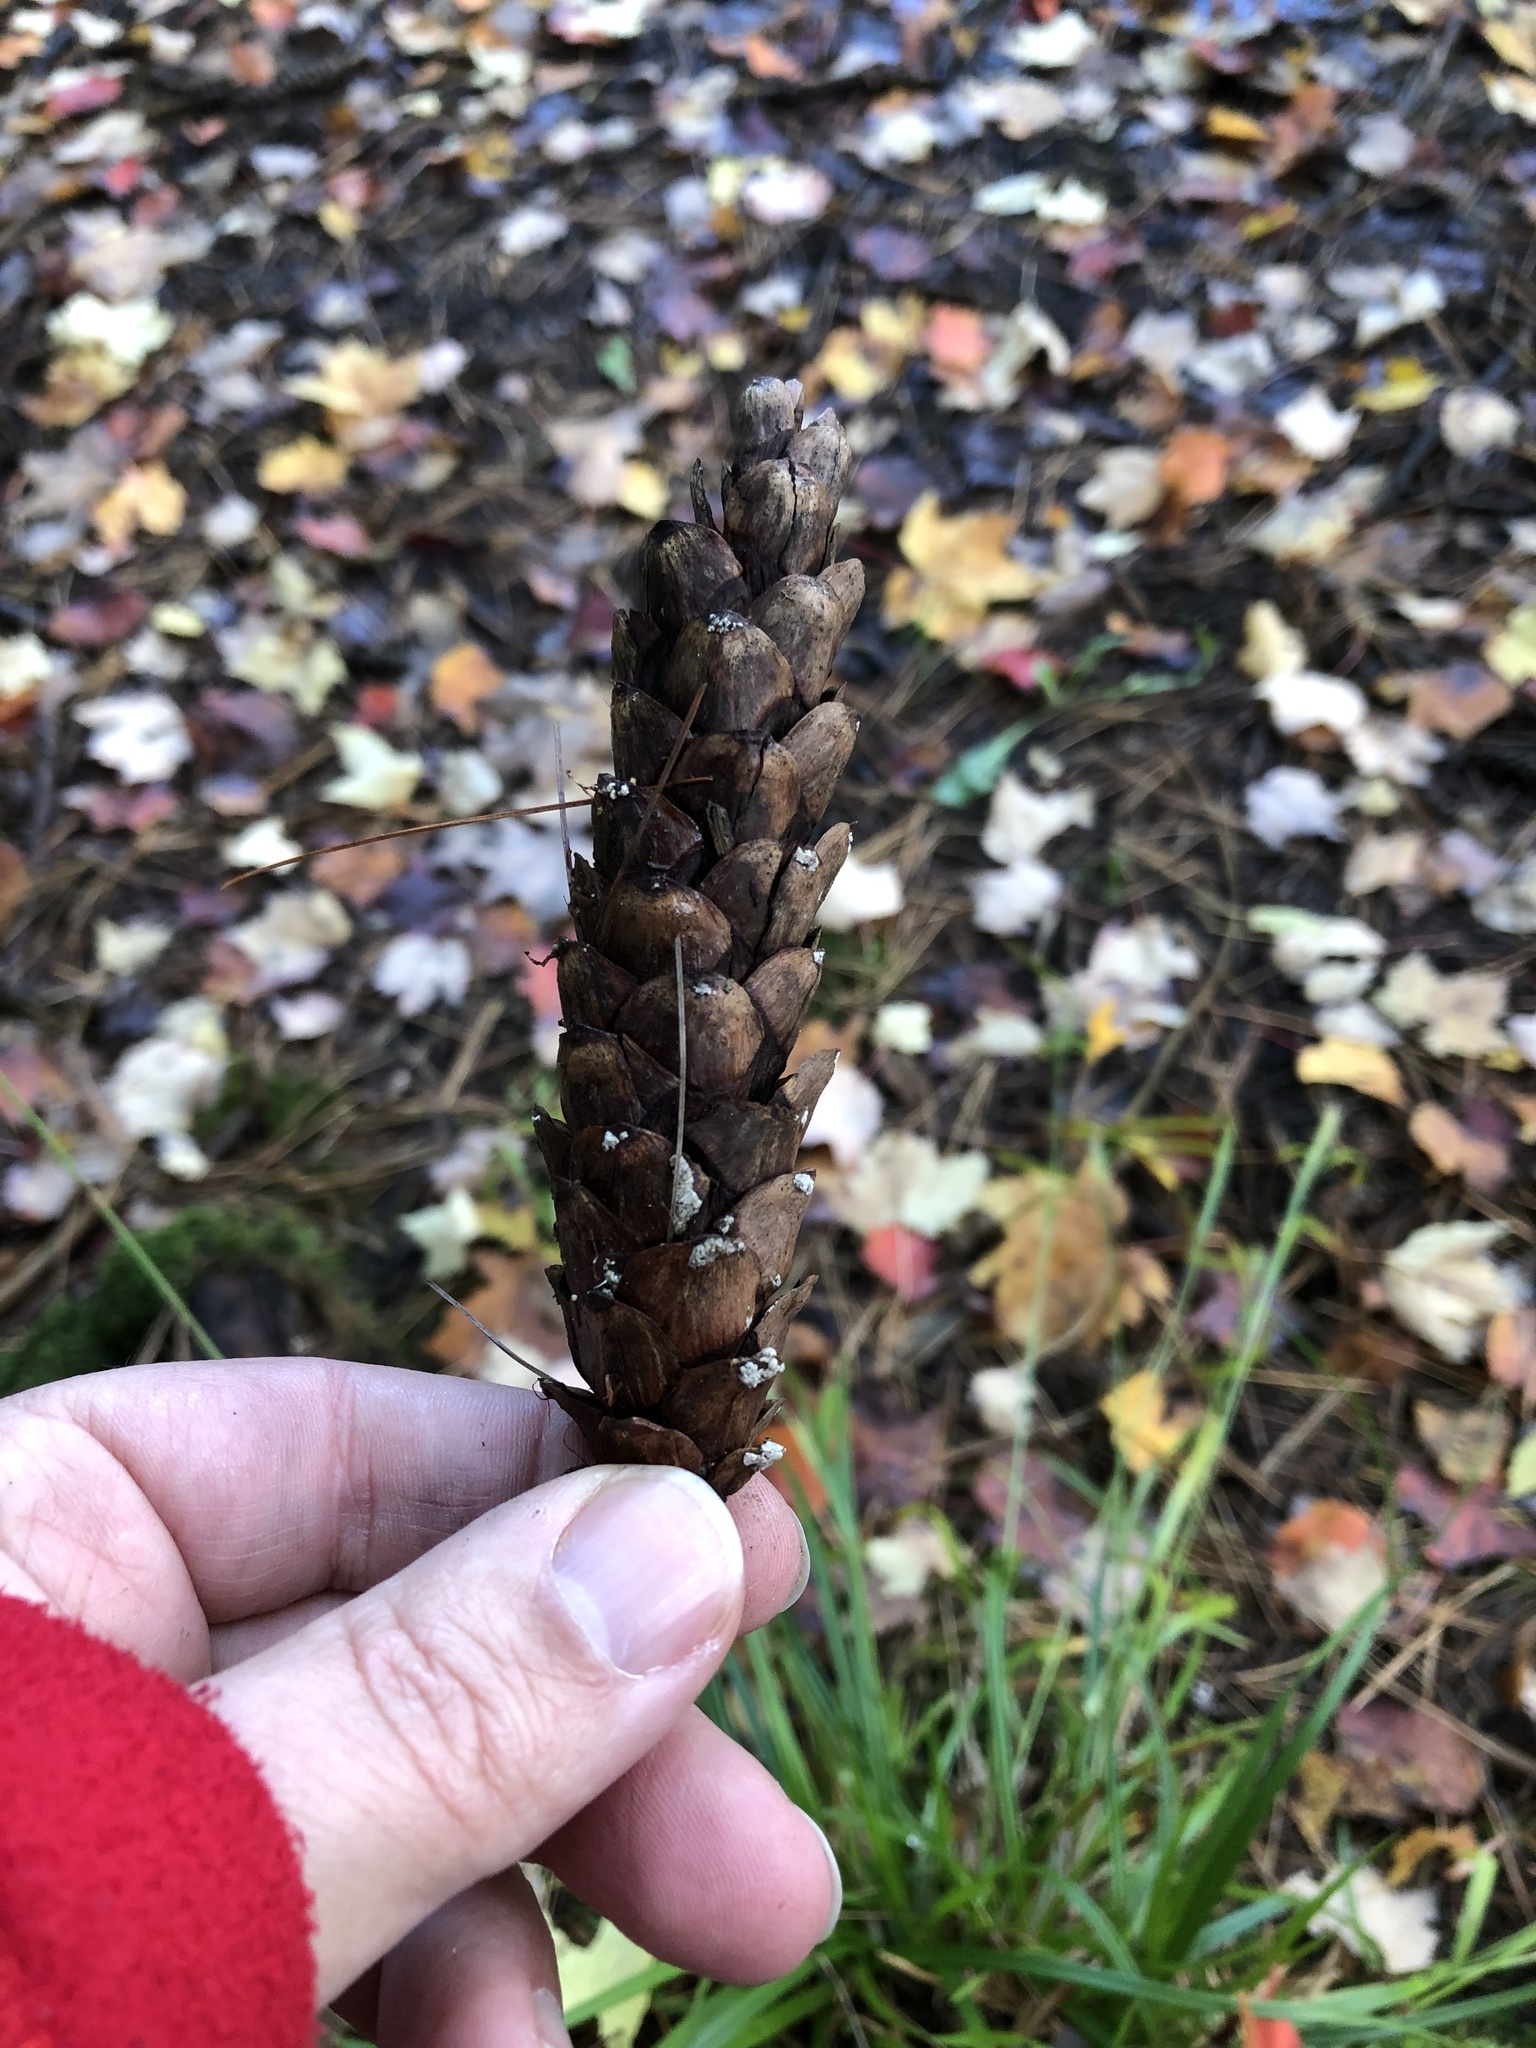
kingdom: Plantae
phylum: Tracheophyta
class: Pinopsida
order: Pinales
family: Pinaceae
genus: Pinus
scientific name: Pinus strobus
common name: Weymouth pine
